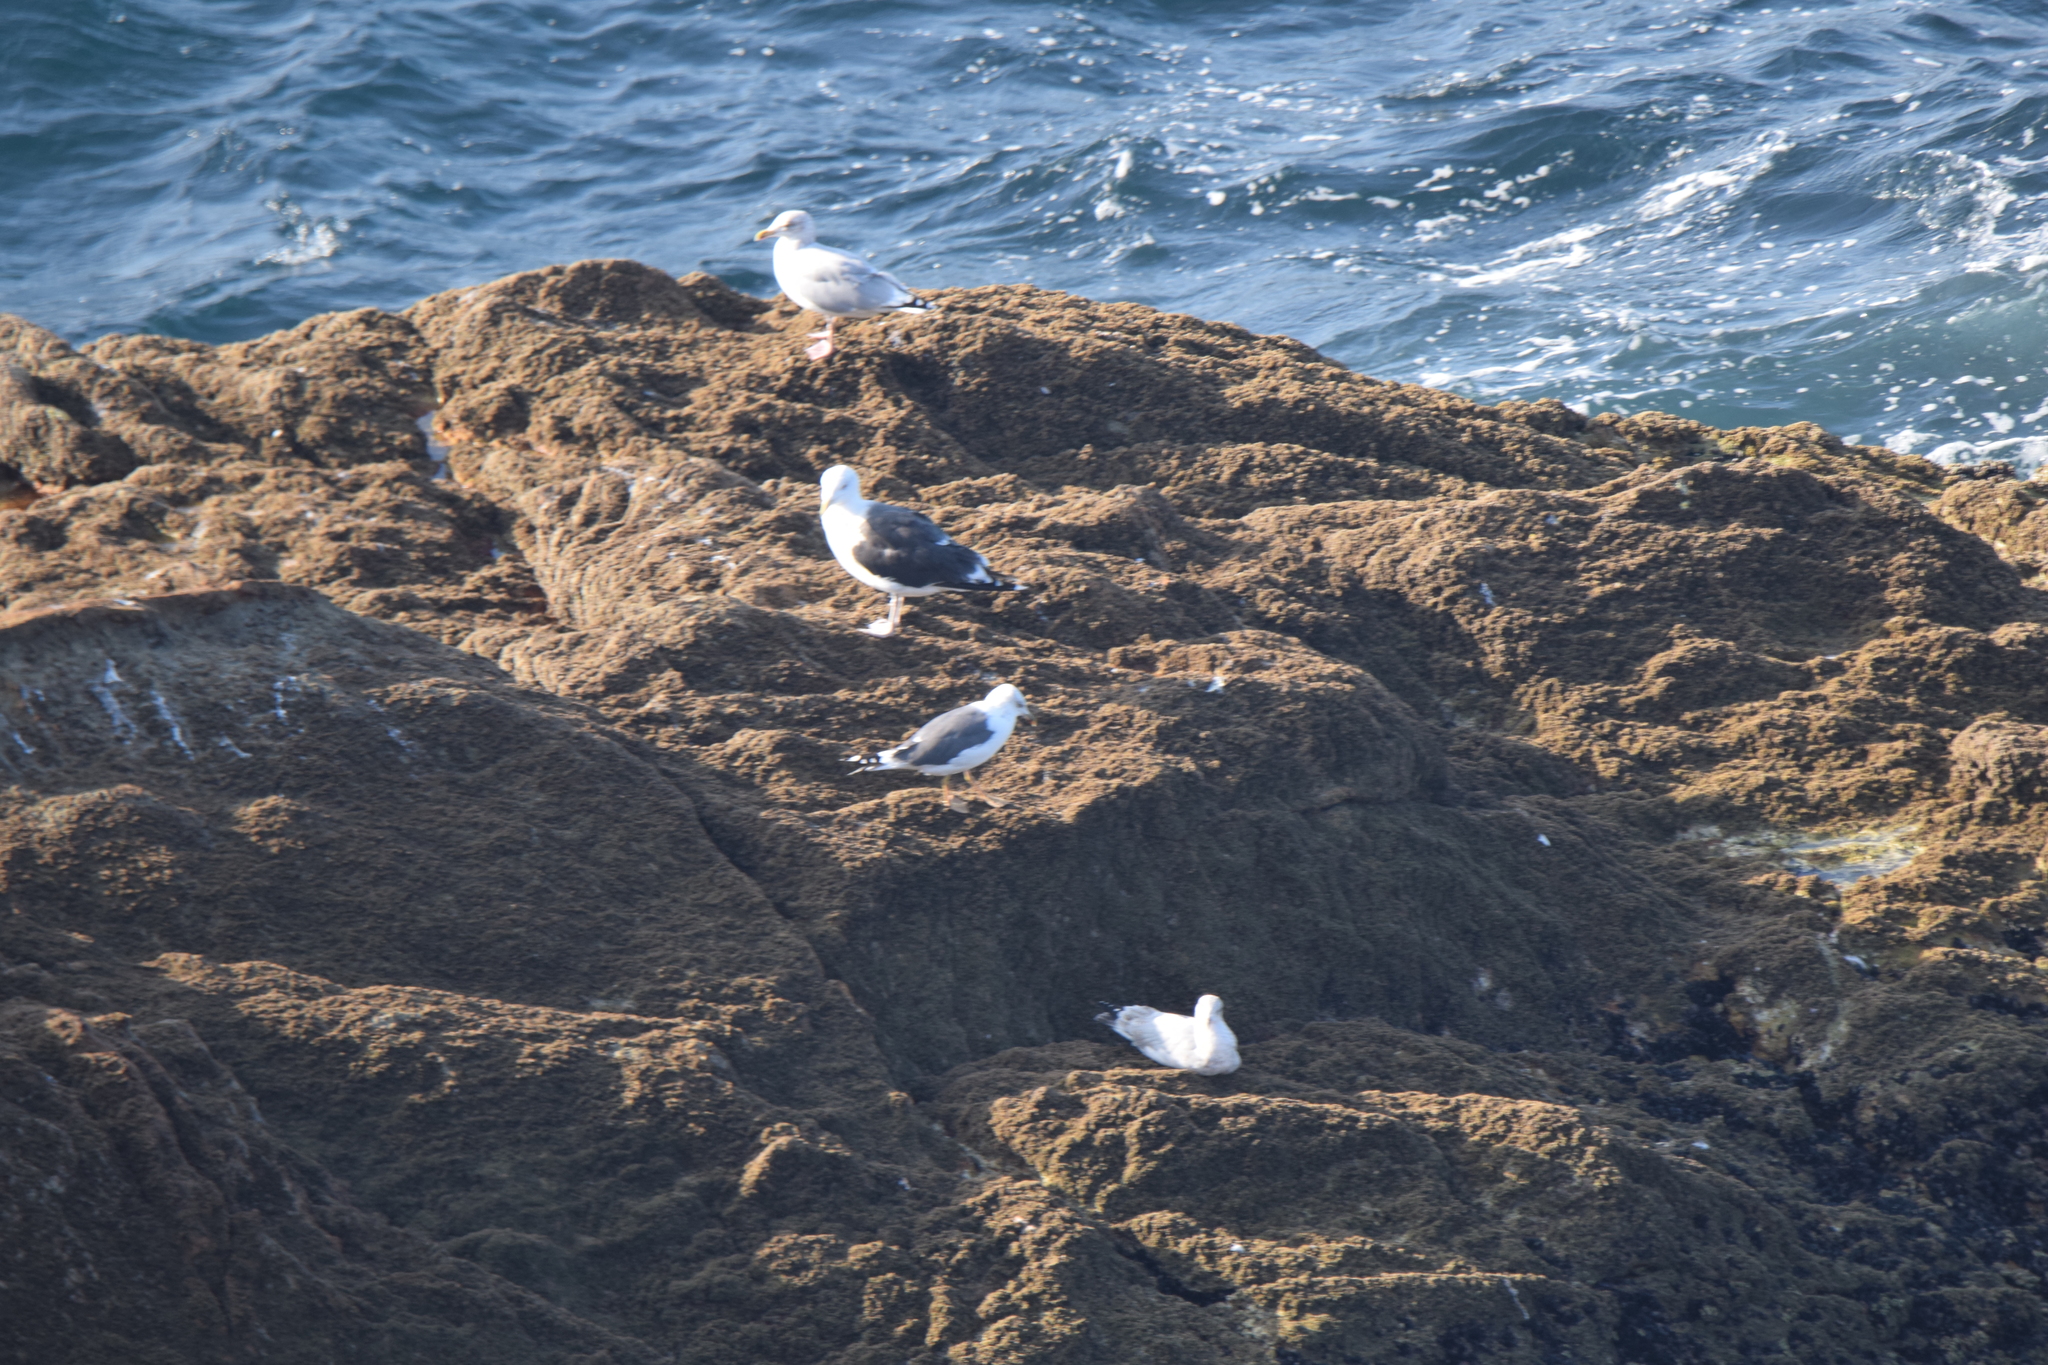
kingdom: Animalia
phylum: Chordata
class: Aves
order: Charadriiformes
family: Laridae
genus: Larus
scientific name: Larus fuscus
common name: Lesser black-backed gull
